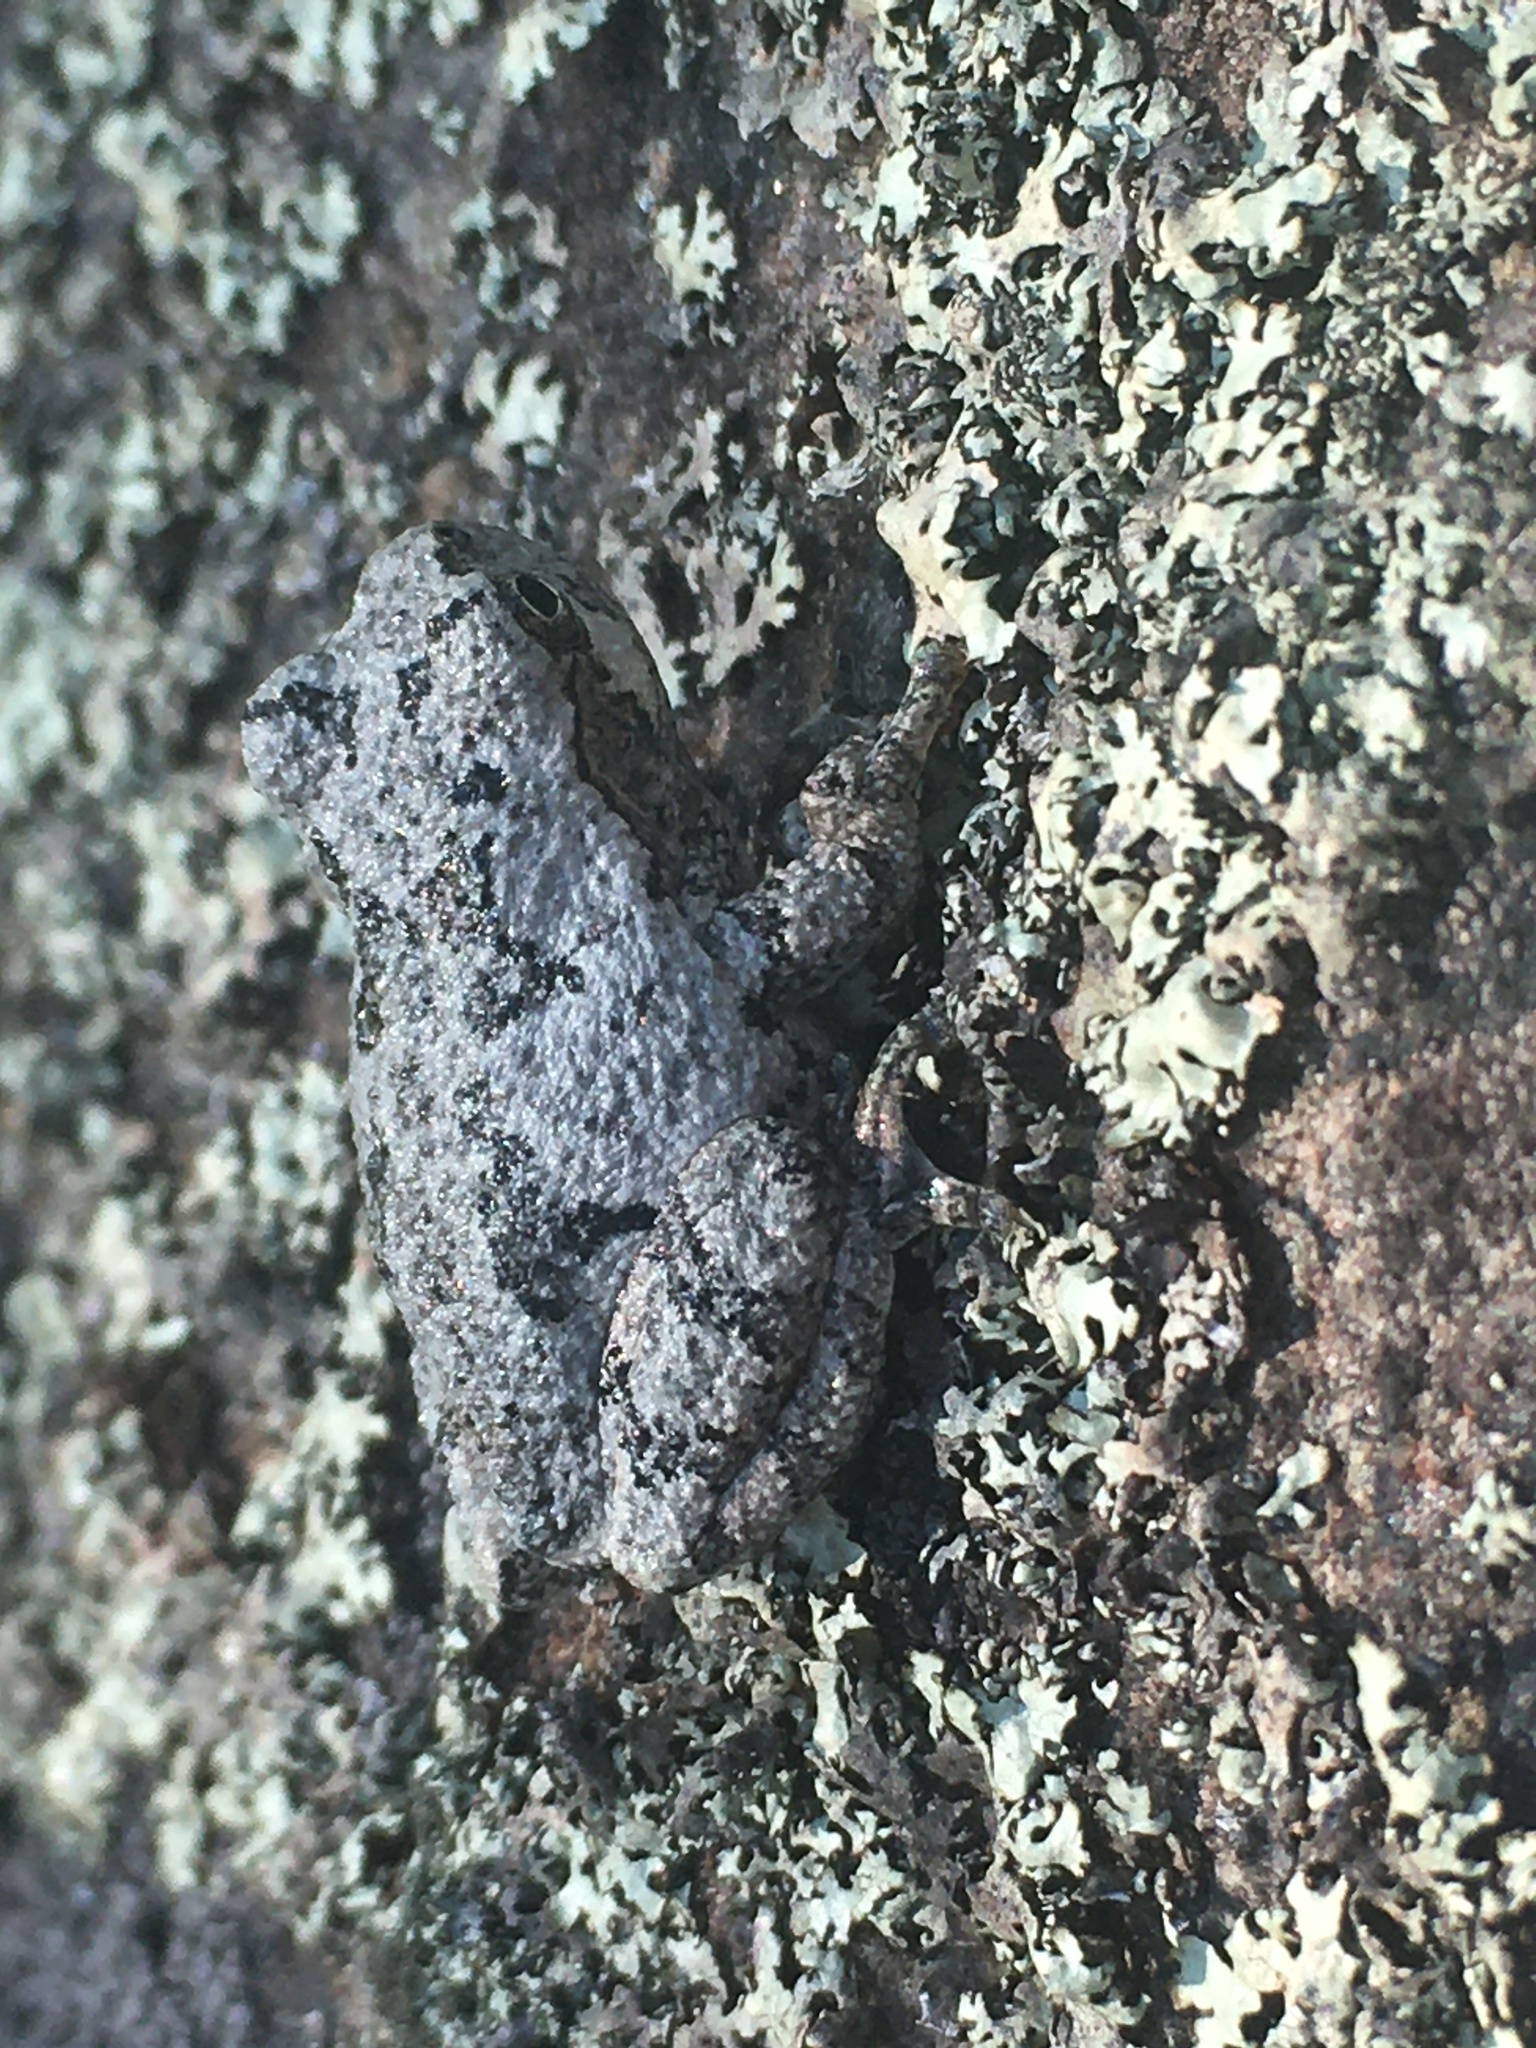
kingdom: Animalia
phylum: Chordata
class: Amphibia
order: Anura
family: Hylidae
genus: Dryophytes
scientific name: Dryophytes versicolor
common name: Gray treefrog
